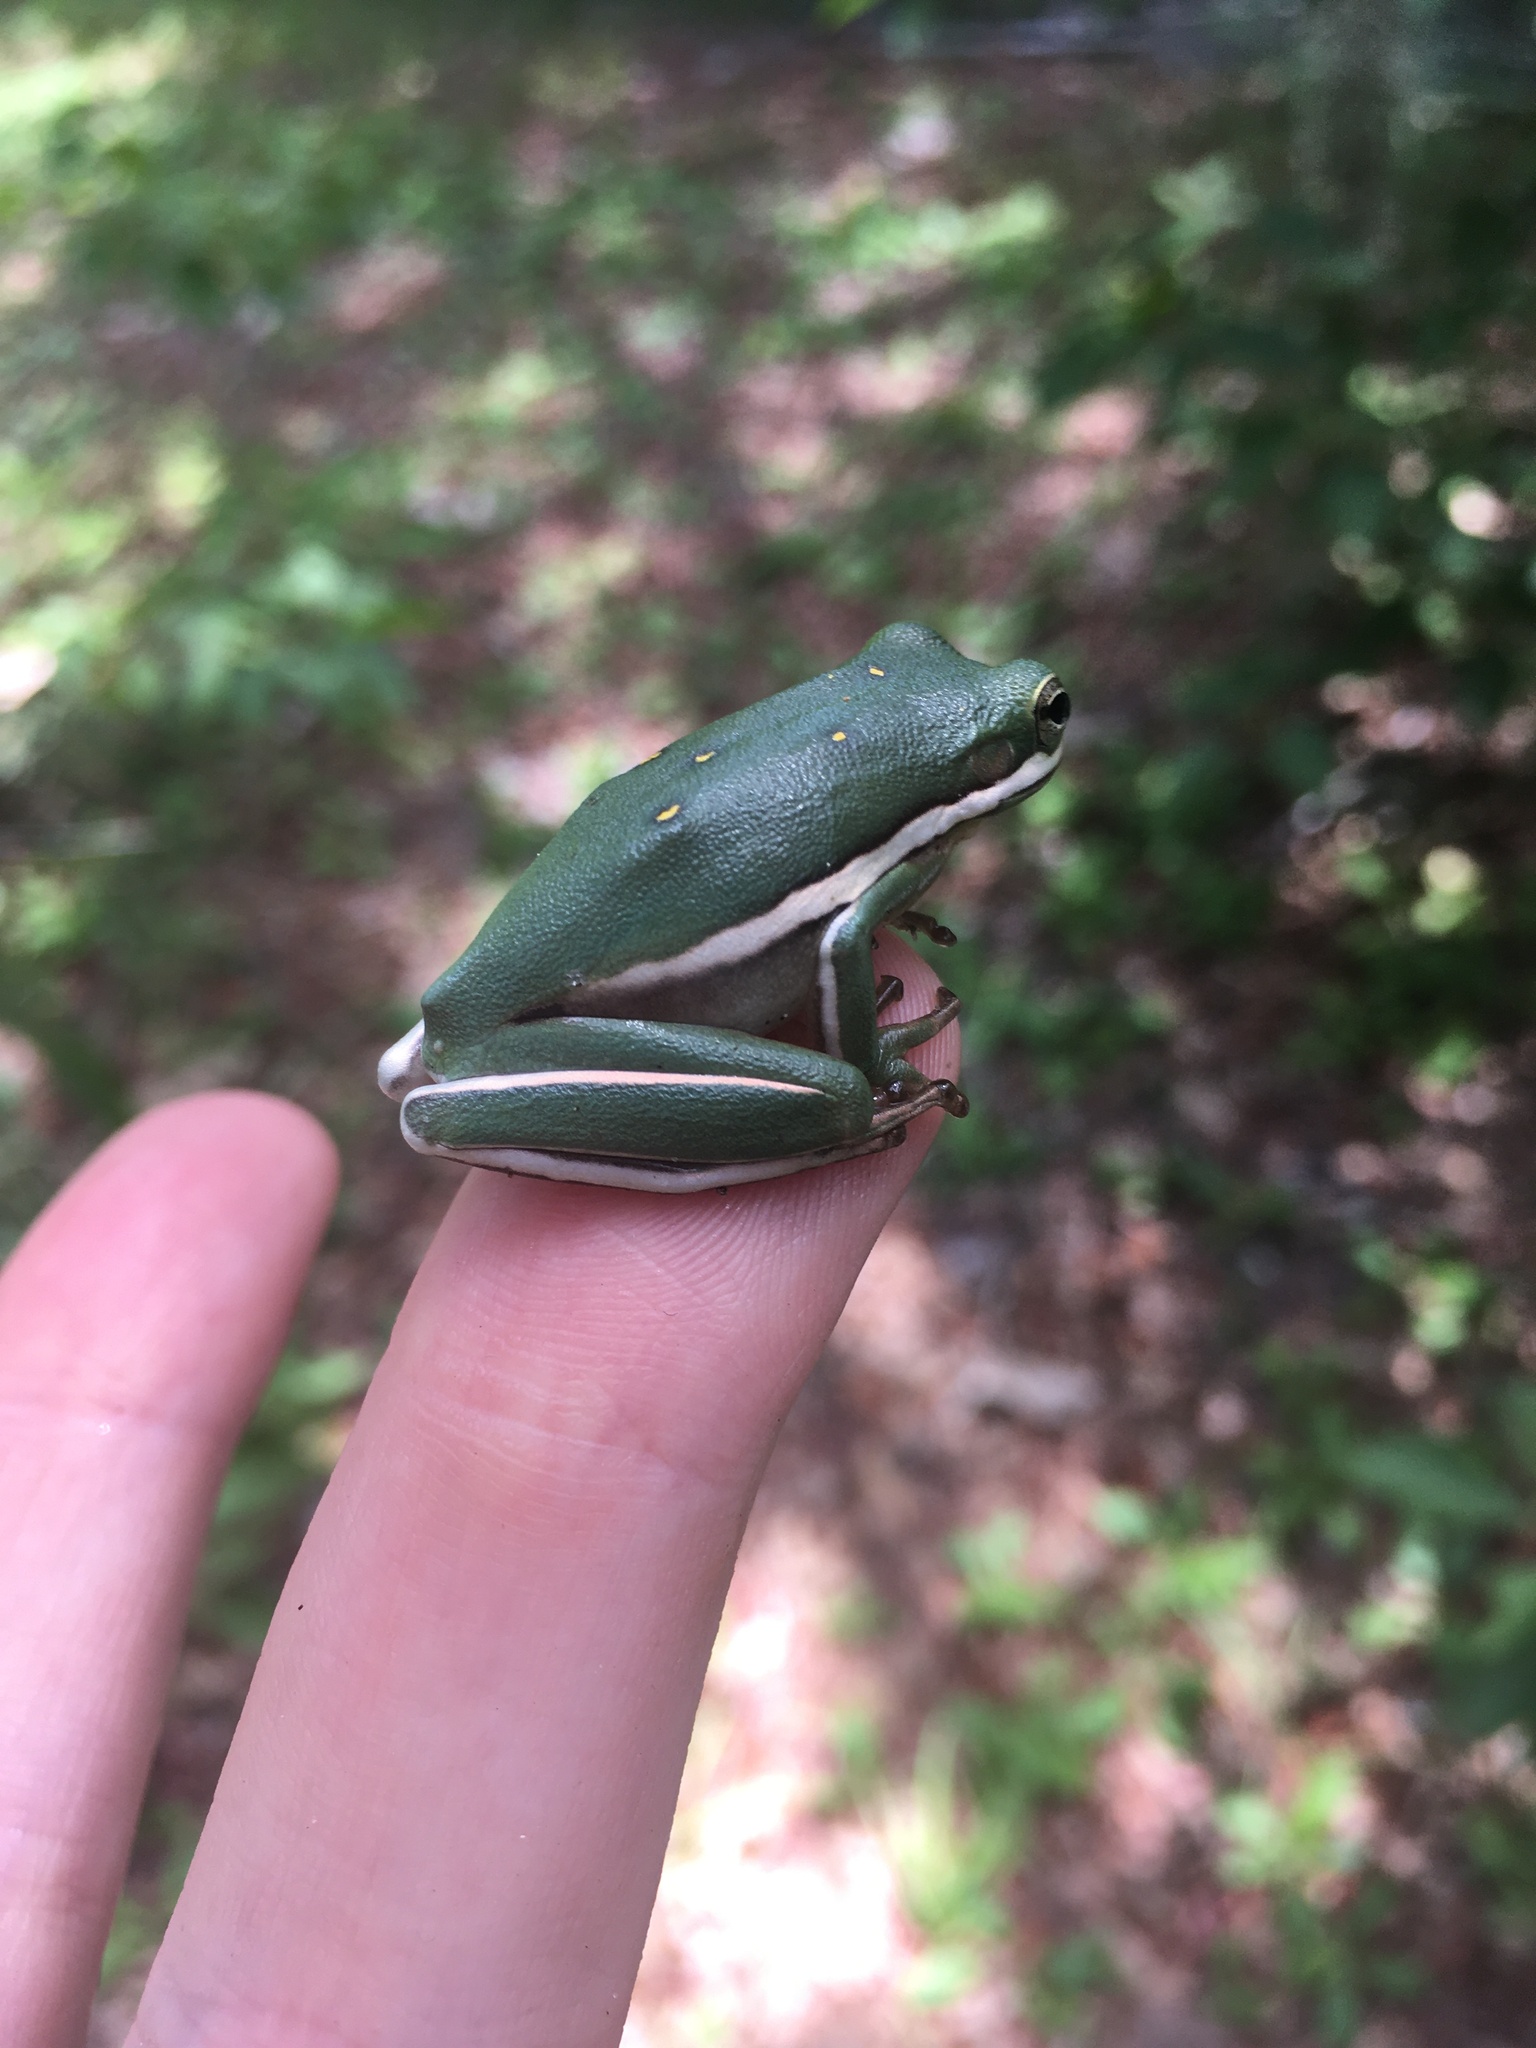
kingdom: Animalia
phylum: Chordata
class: Amphibia
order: Anura
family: Hylidae
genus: Dryophytes
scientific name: Dryophytes cinereus
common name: Green treefrog
